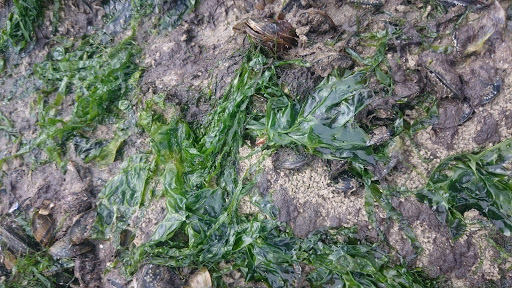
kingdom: Plantae
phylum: Chlorophyta
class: Ulvophyceae
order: Ulvales
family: Ulvaceae
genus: Ulva
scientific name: Ulva lactuca
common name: Sea lettuce
